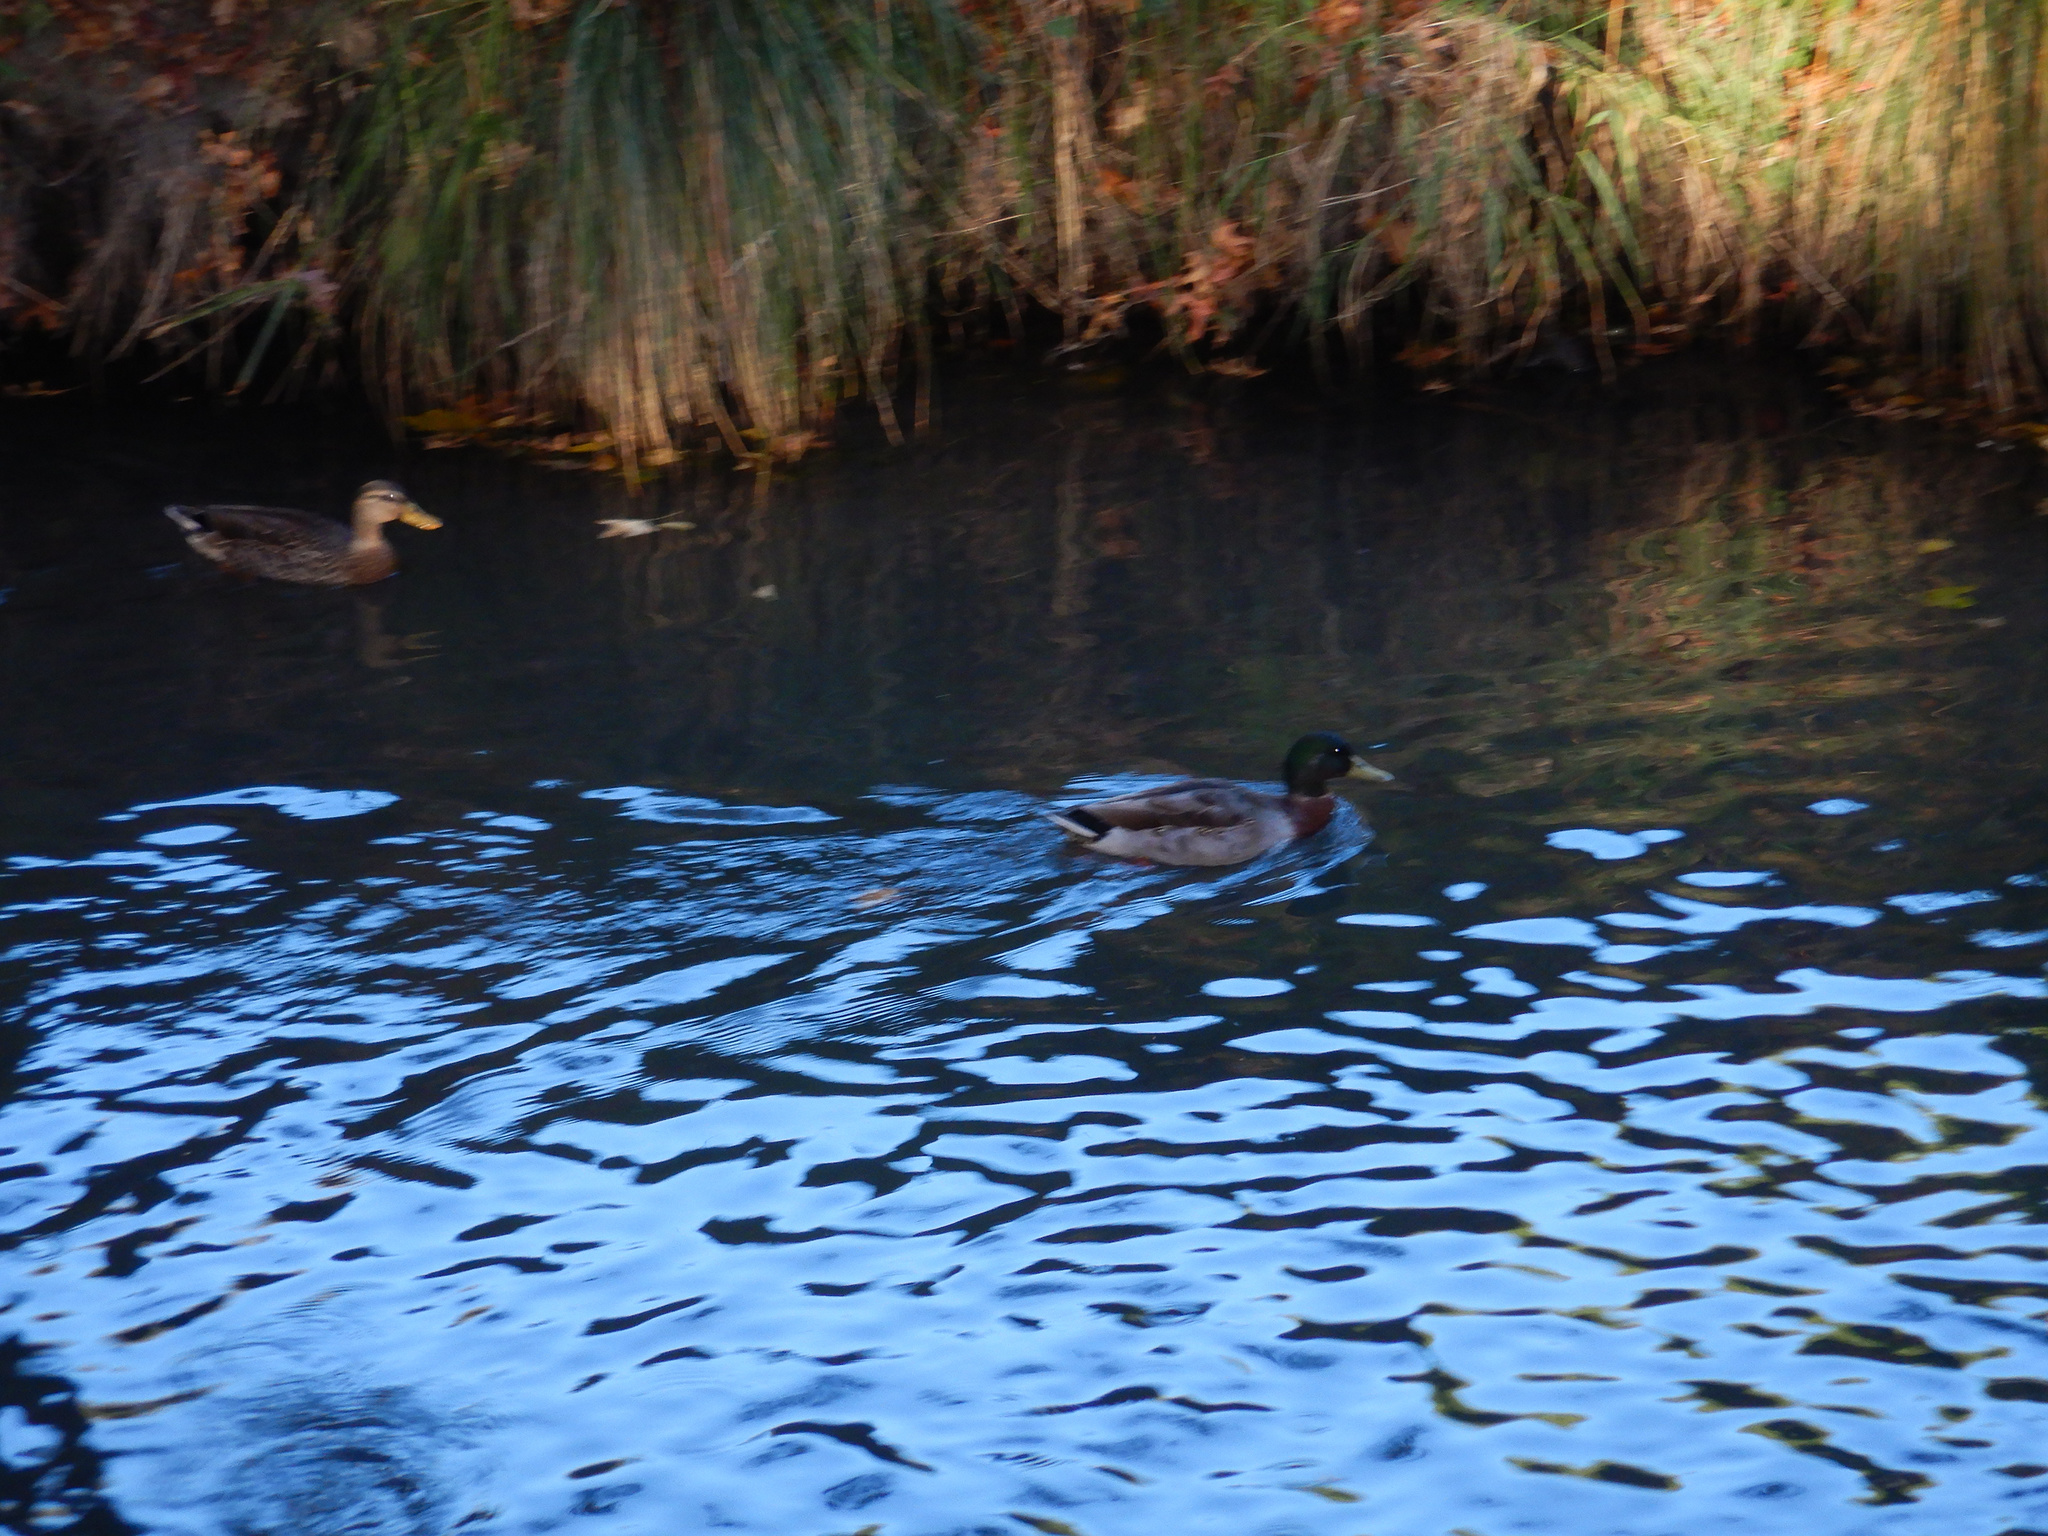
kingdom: Animalia
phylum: Chordata
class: Aves
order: Anseriformes
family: Anatidae
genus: Anas
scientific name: Anas platyrhynchos
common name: Mallard
